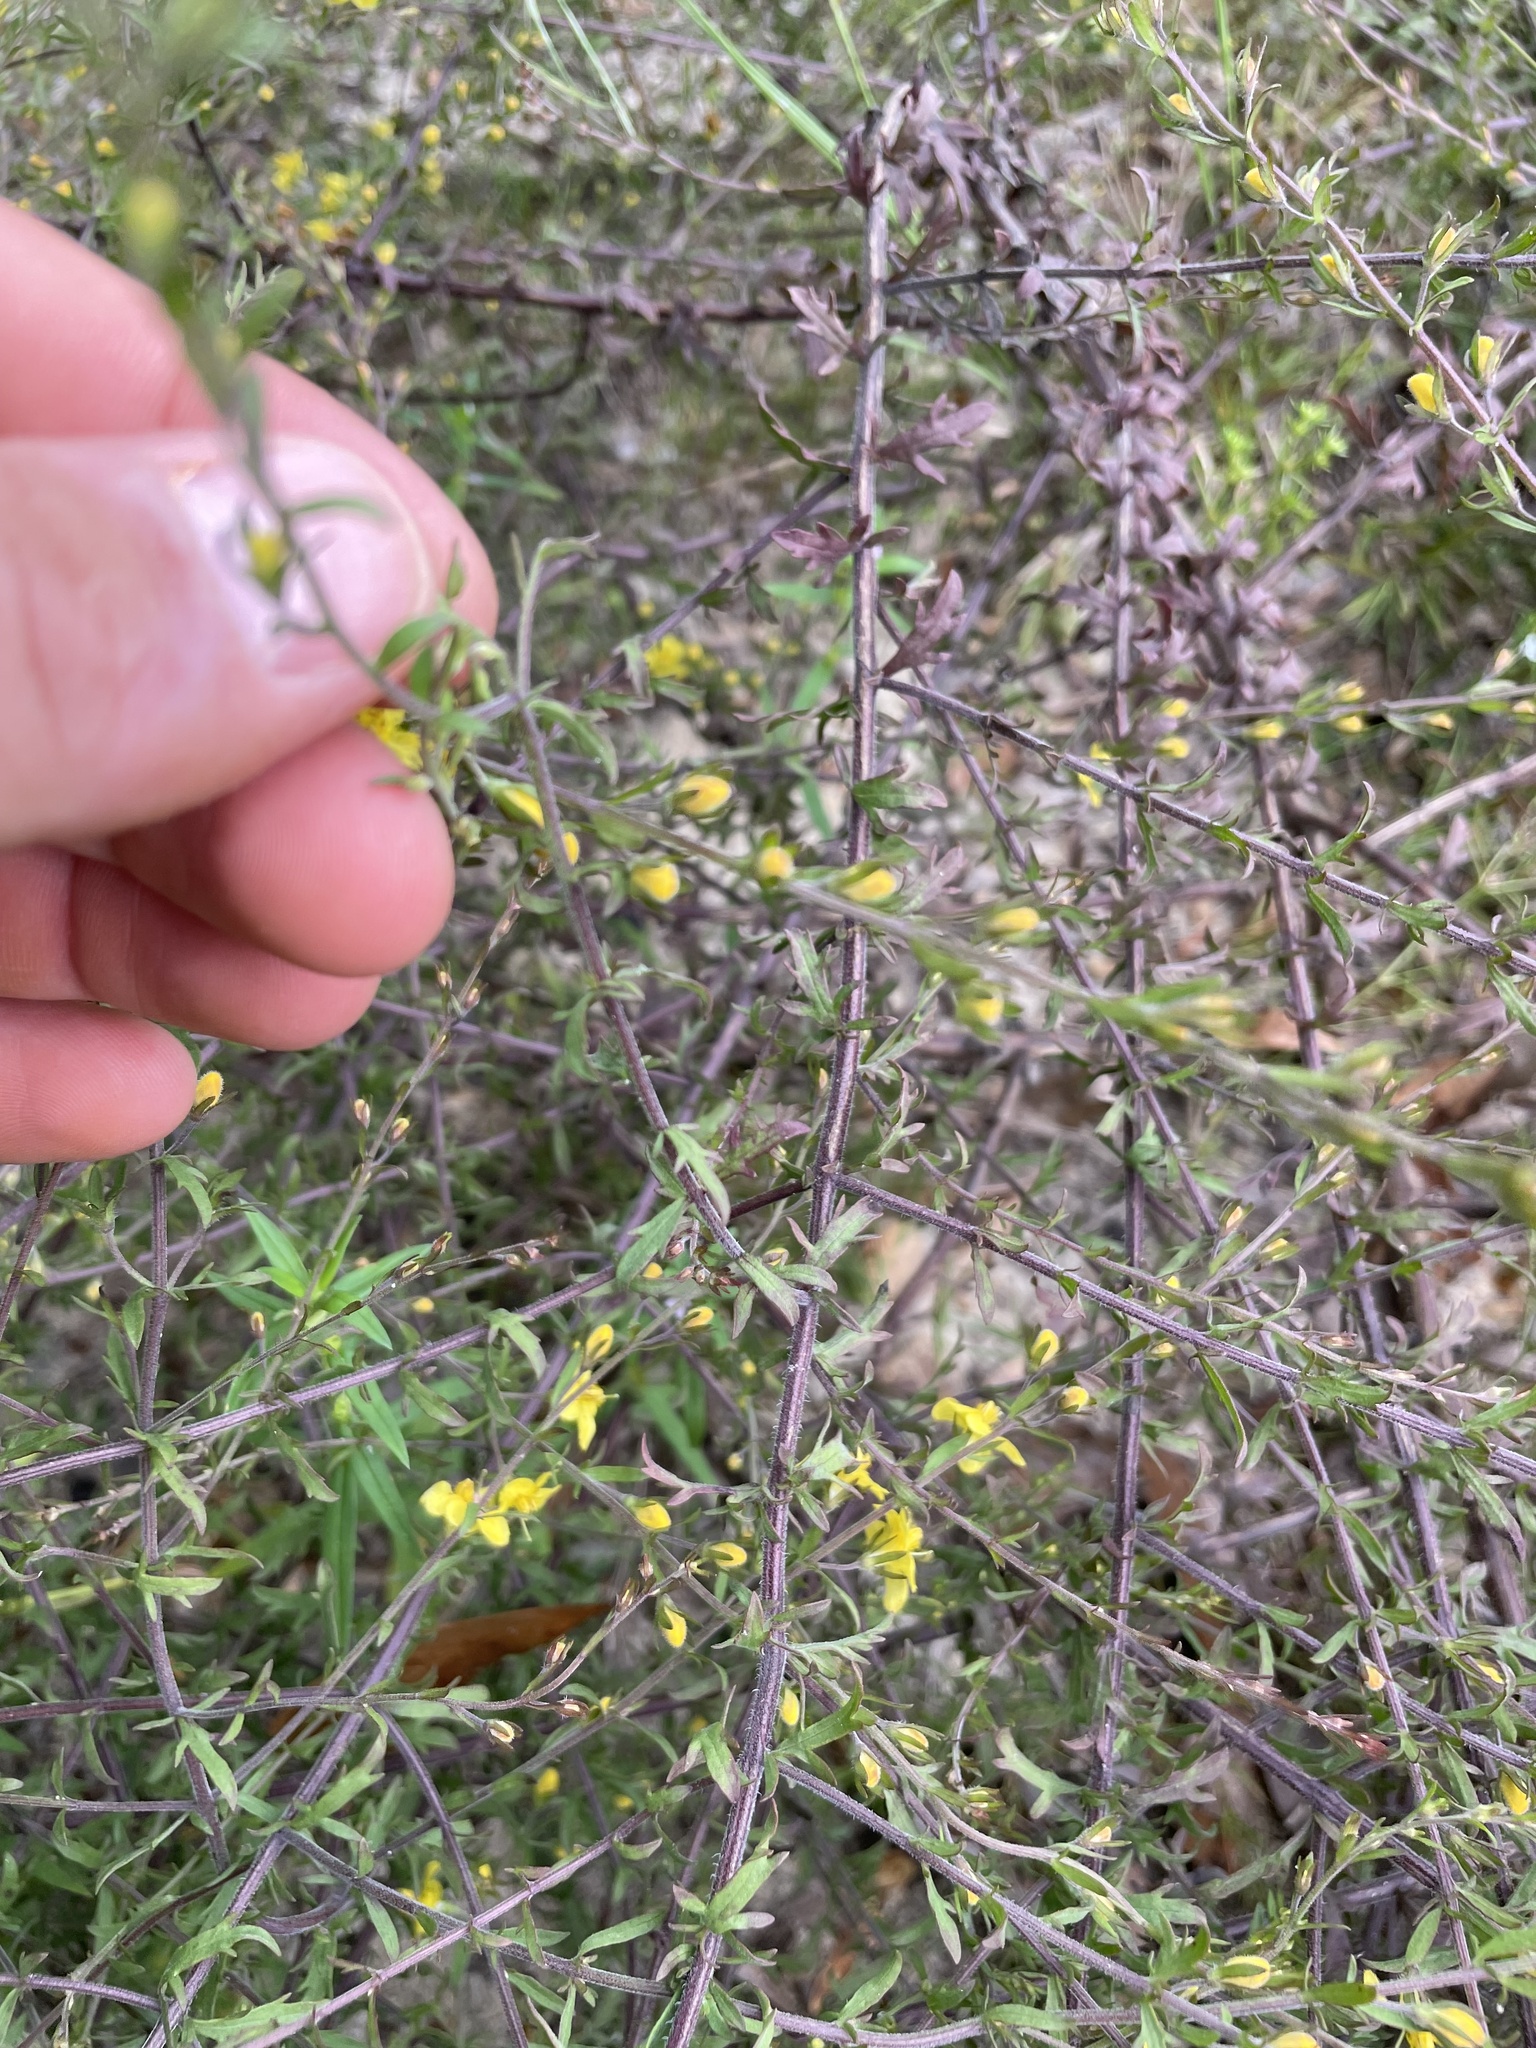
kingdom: Plantae
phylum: Tracheophyta
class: Magnoliopsida
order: Lamiales
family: Orobanchaceae
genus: Seymeria
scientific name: Seymeria pectinata
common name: Piedmont black-senna
